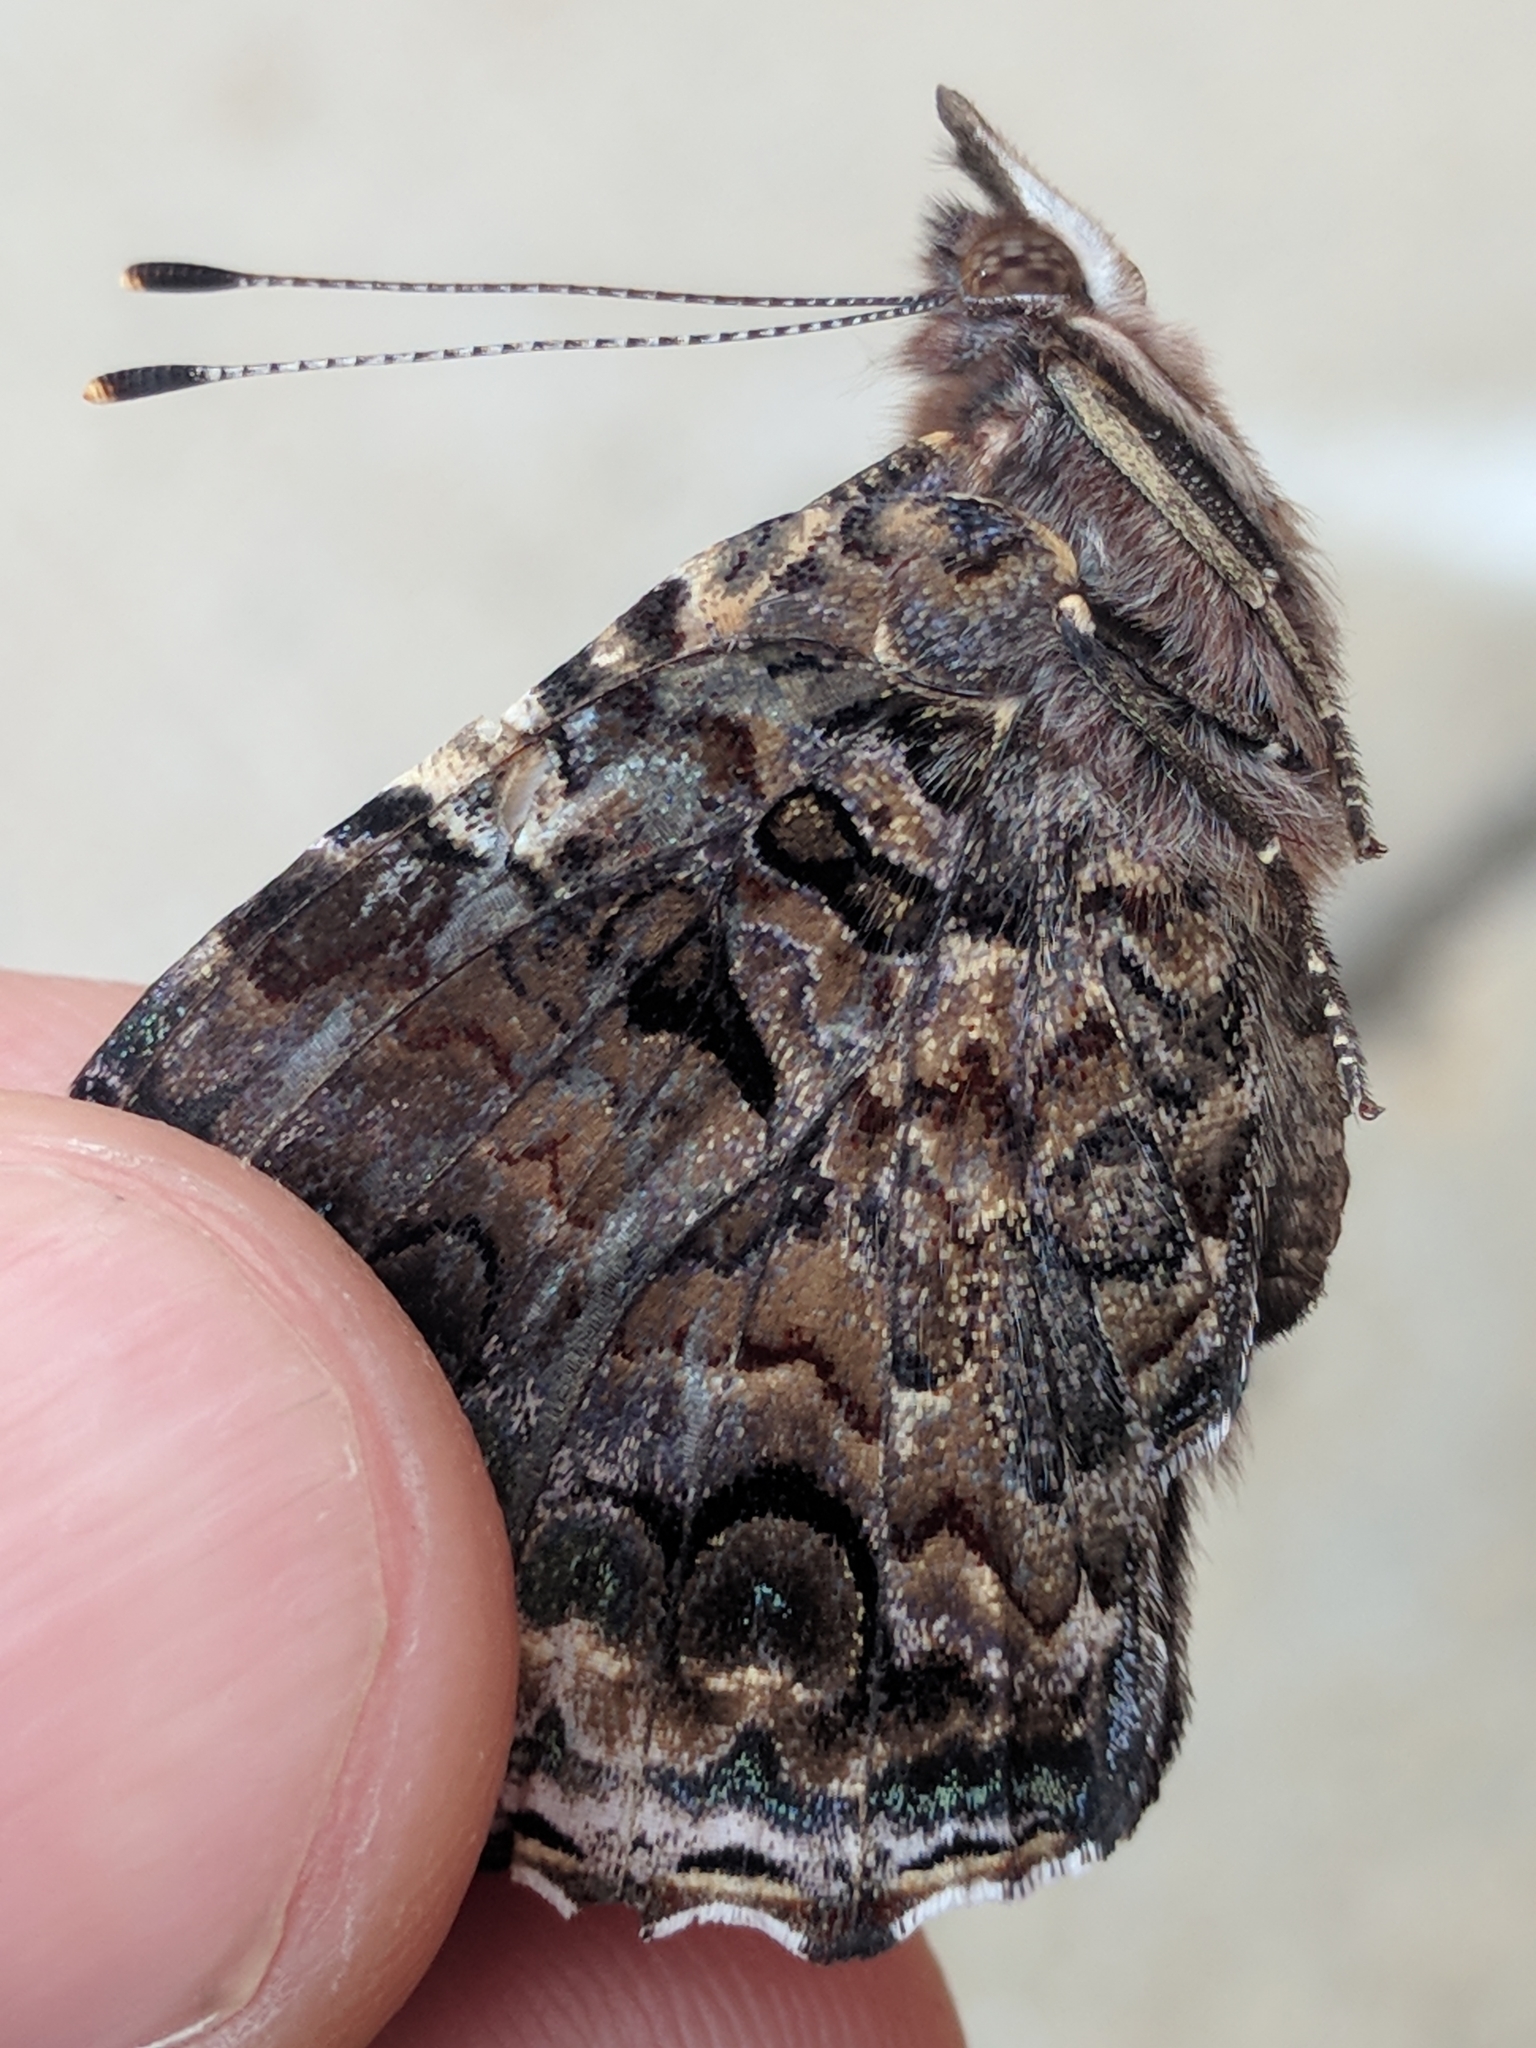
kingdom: Animalia
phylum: Arthropoda
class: Insecta
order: Lepidoptera
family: Nymphalidae
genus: Vanessa
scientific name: Vanessa atalanta
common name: Red admiral
